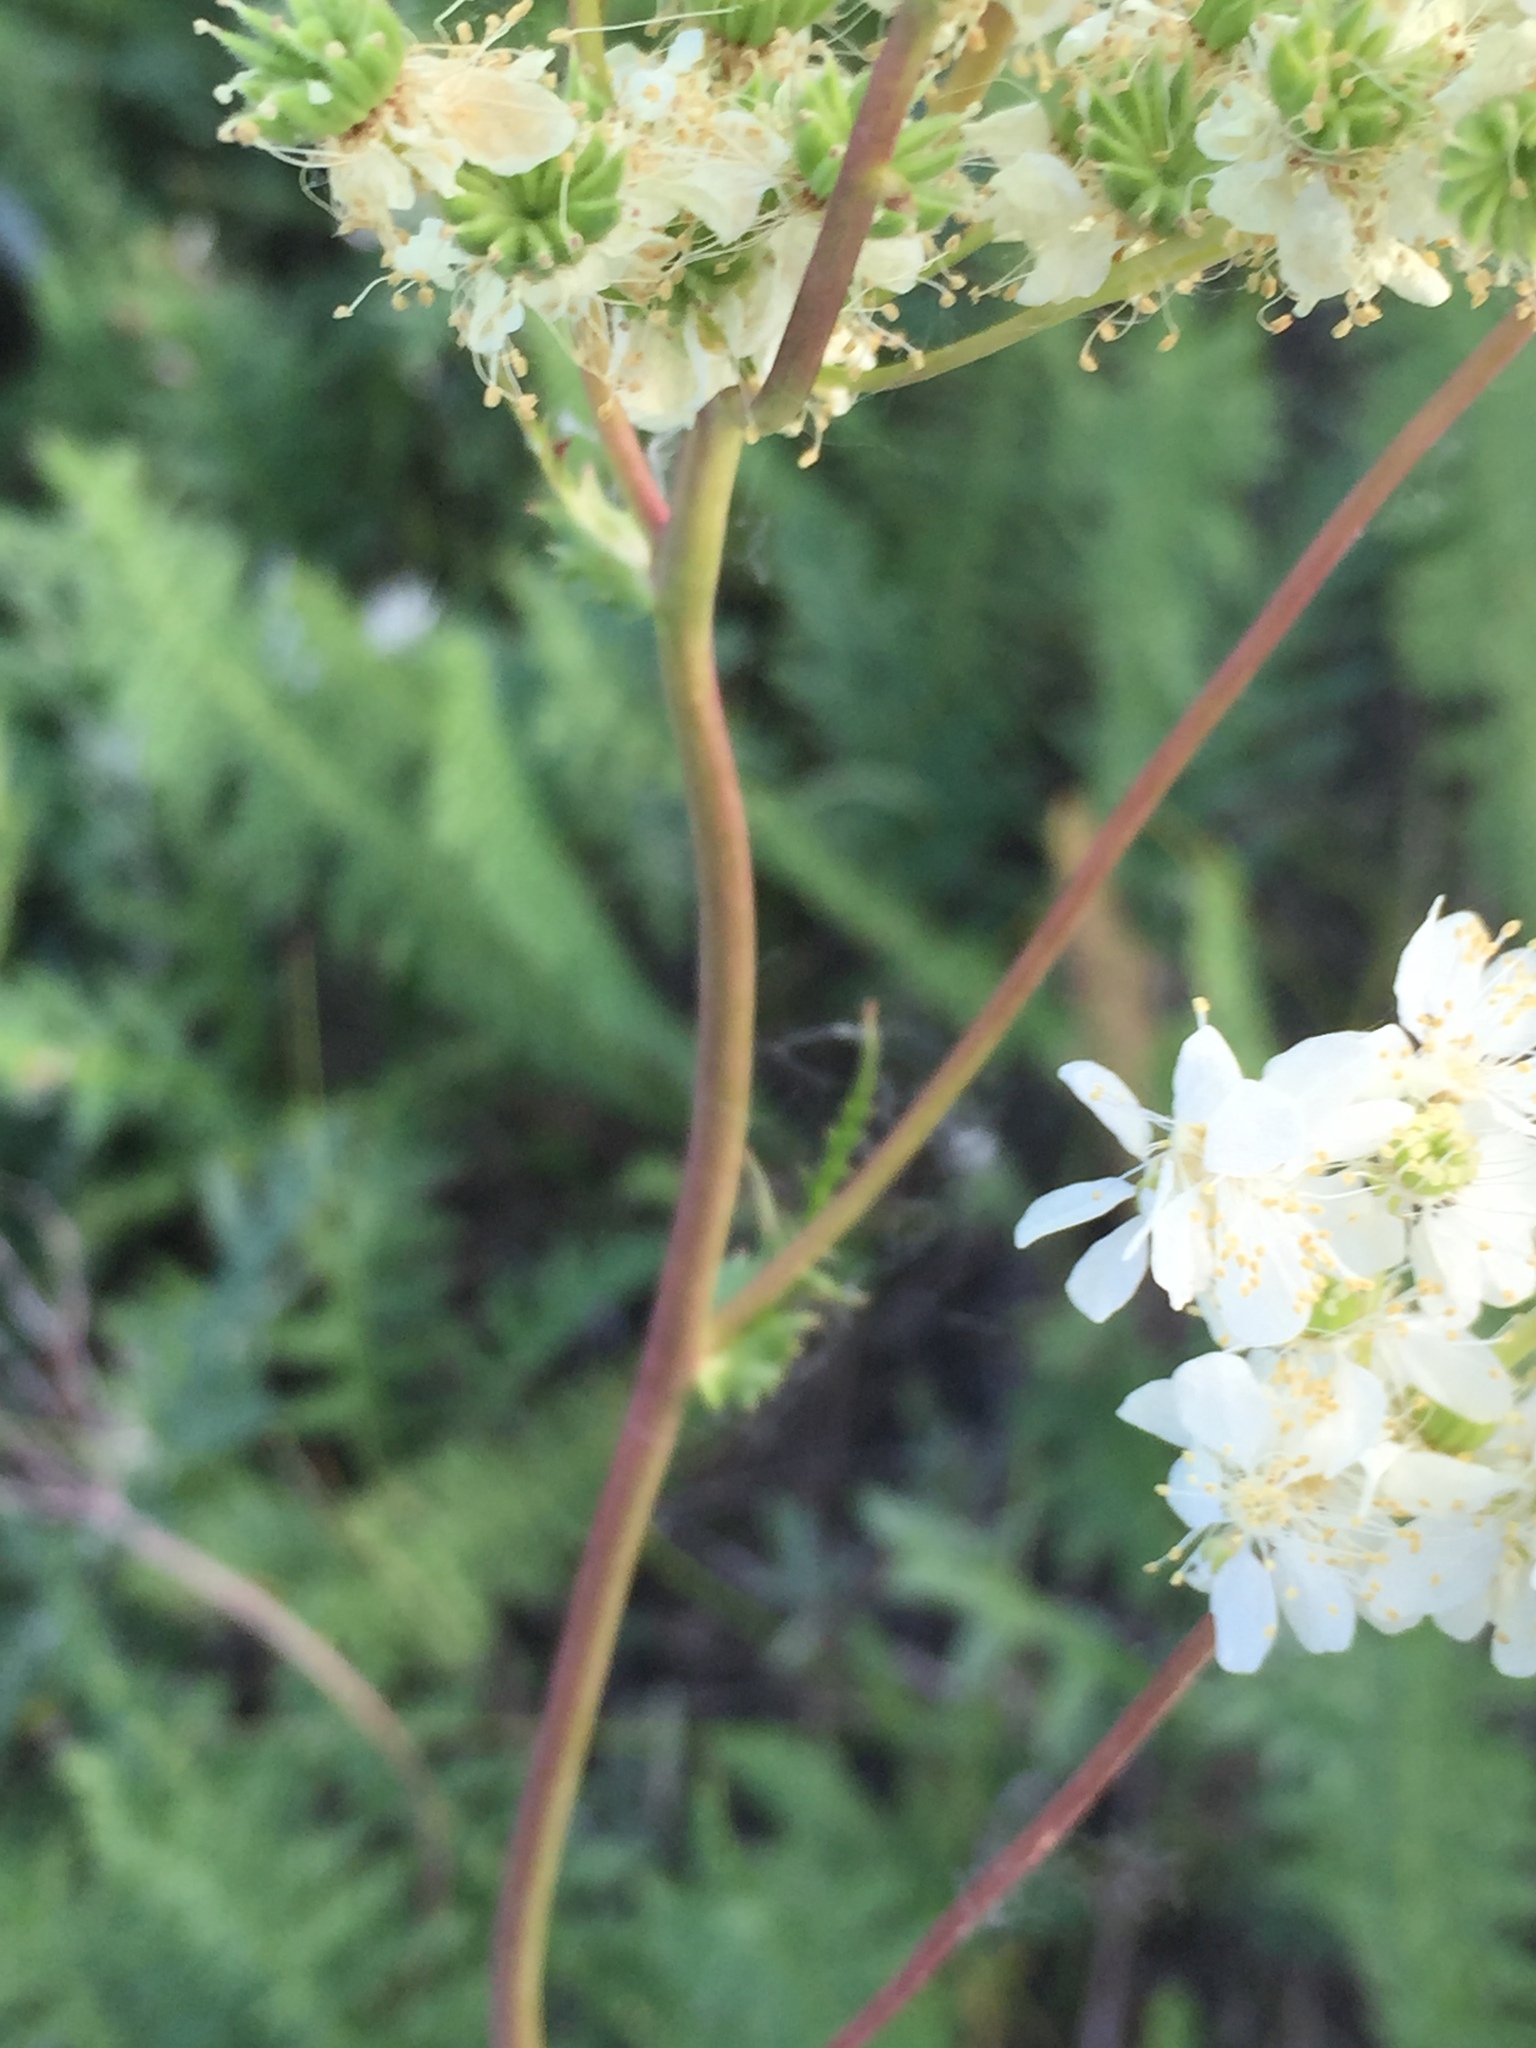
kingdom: Plantae
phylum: Tracheophyta
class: Magnoliopsida
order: Rosales
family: Rosaceae
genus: Filipendula
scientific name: Filipendula vulgaris
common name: Dropwort
